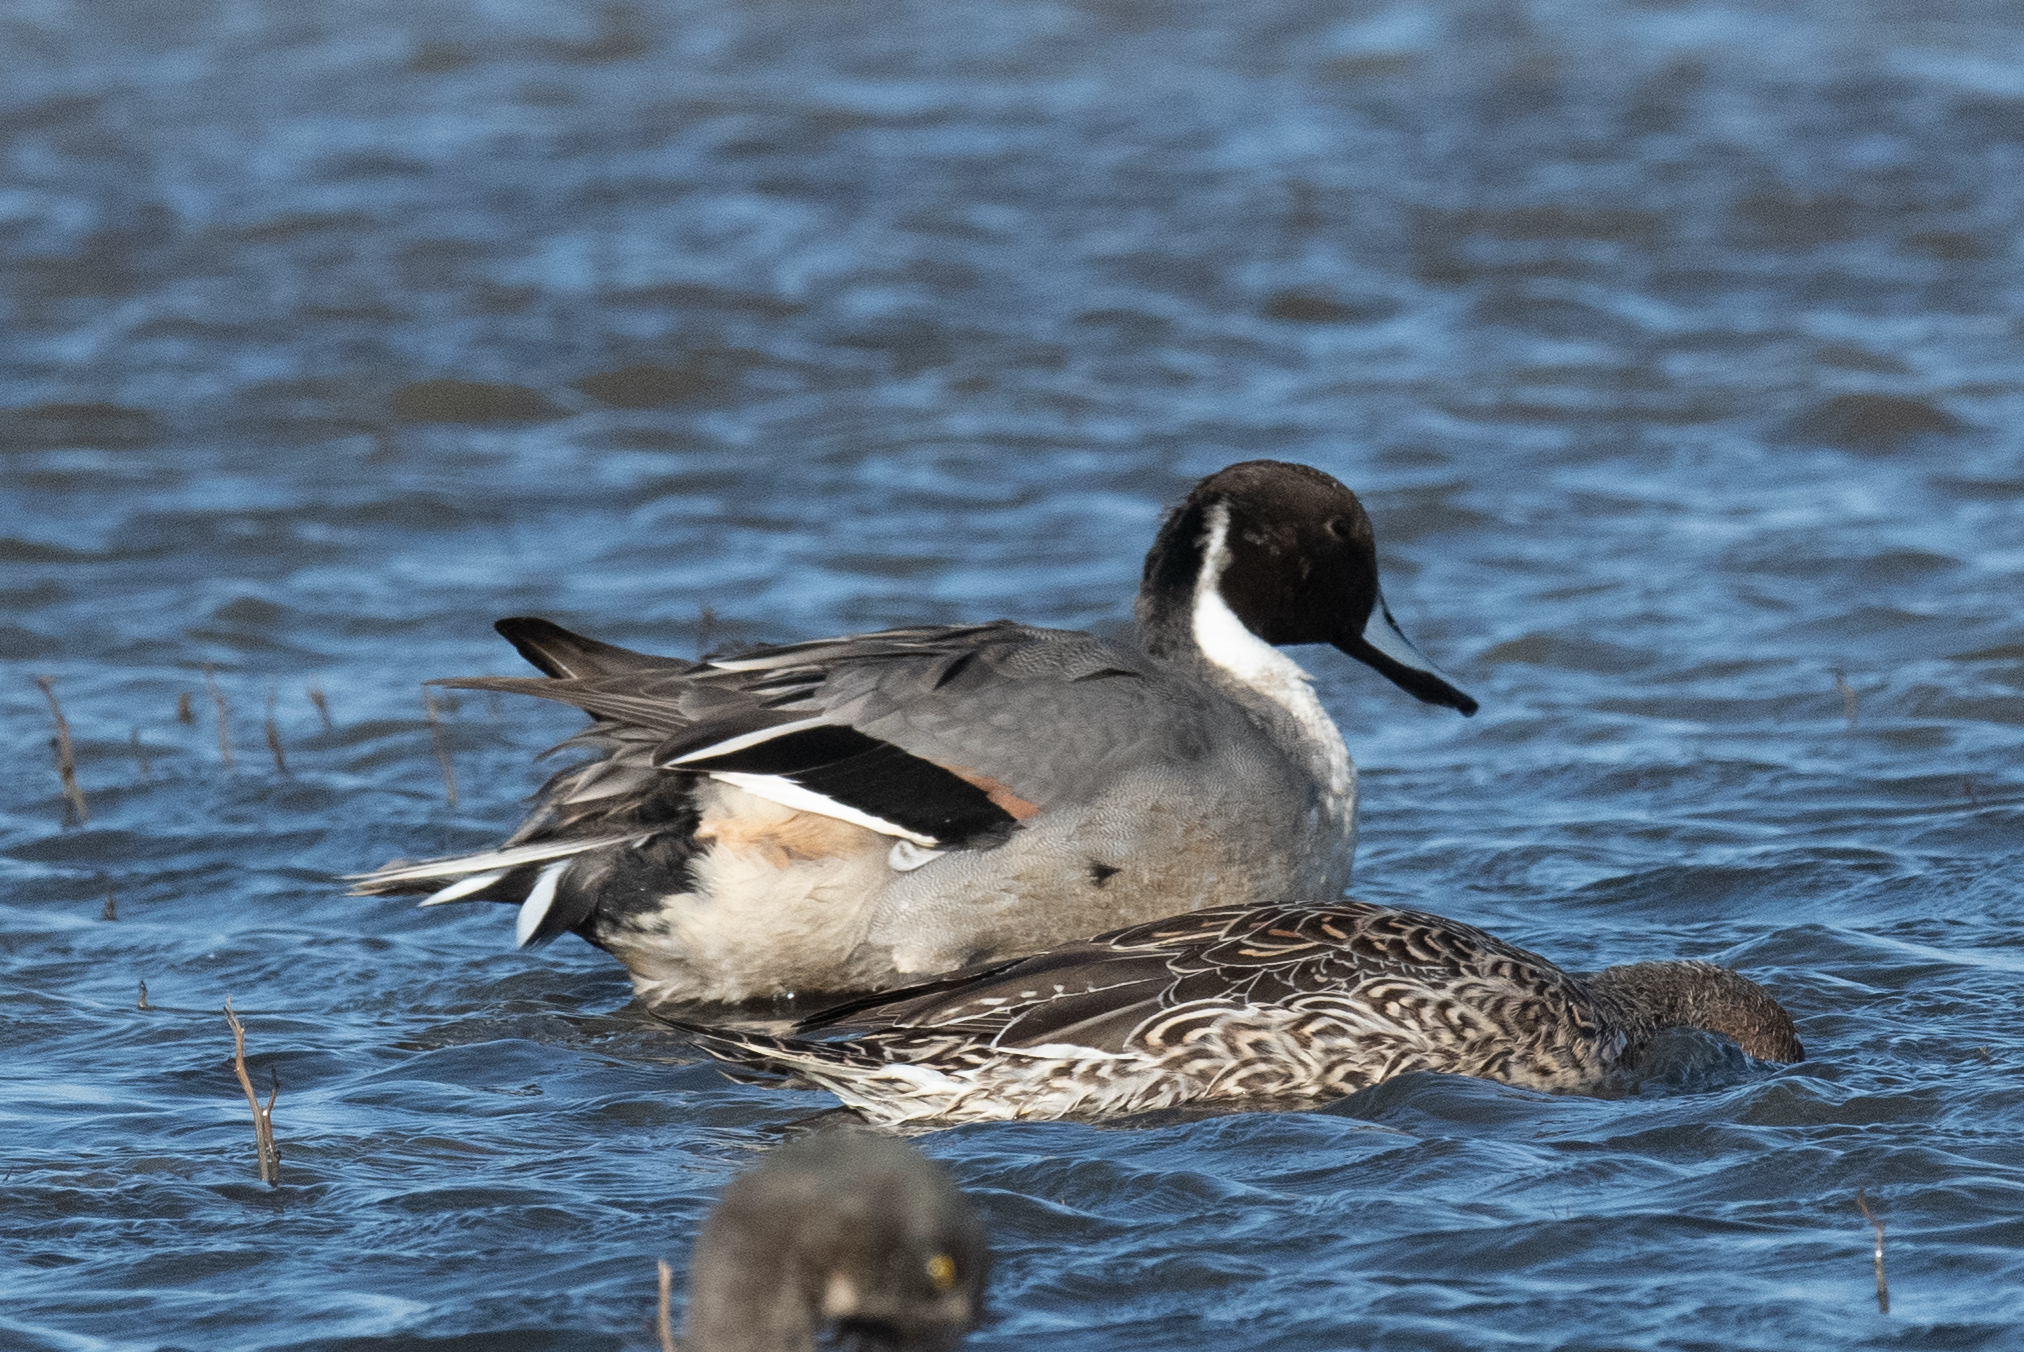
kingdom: Animalia
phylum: Chordata
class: Aves
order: Anseriformes
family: Anatidae
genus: Anas
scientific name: Anas acuta
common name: Northern pintail
